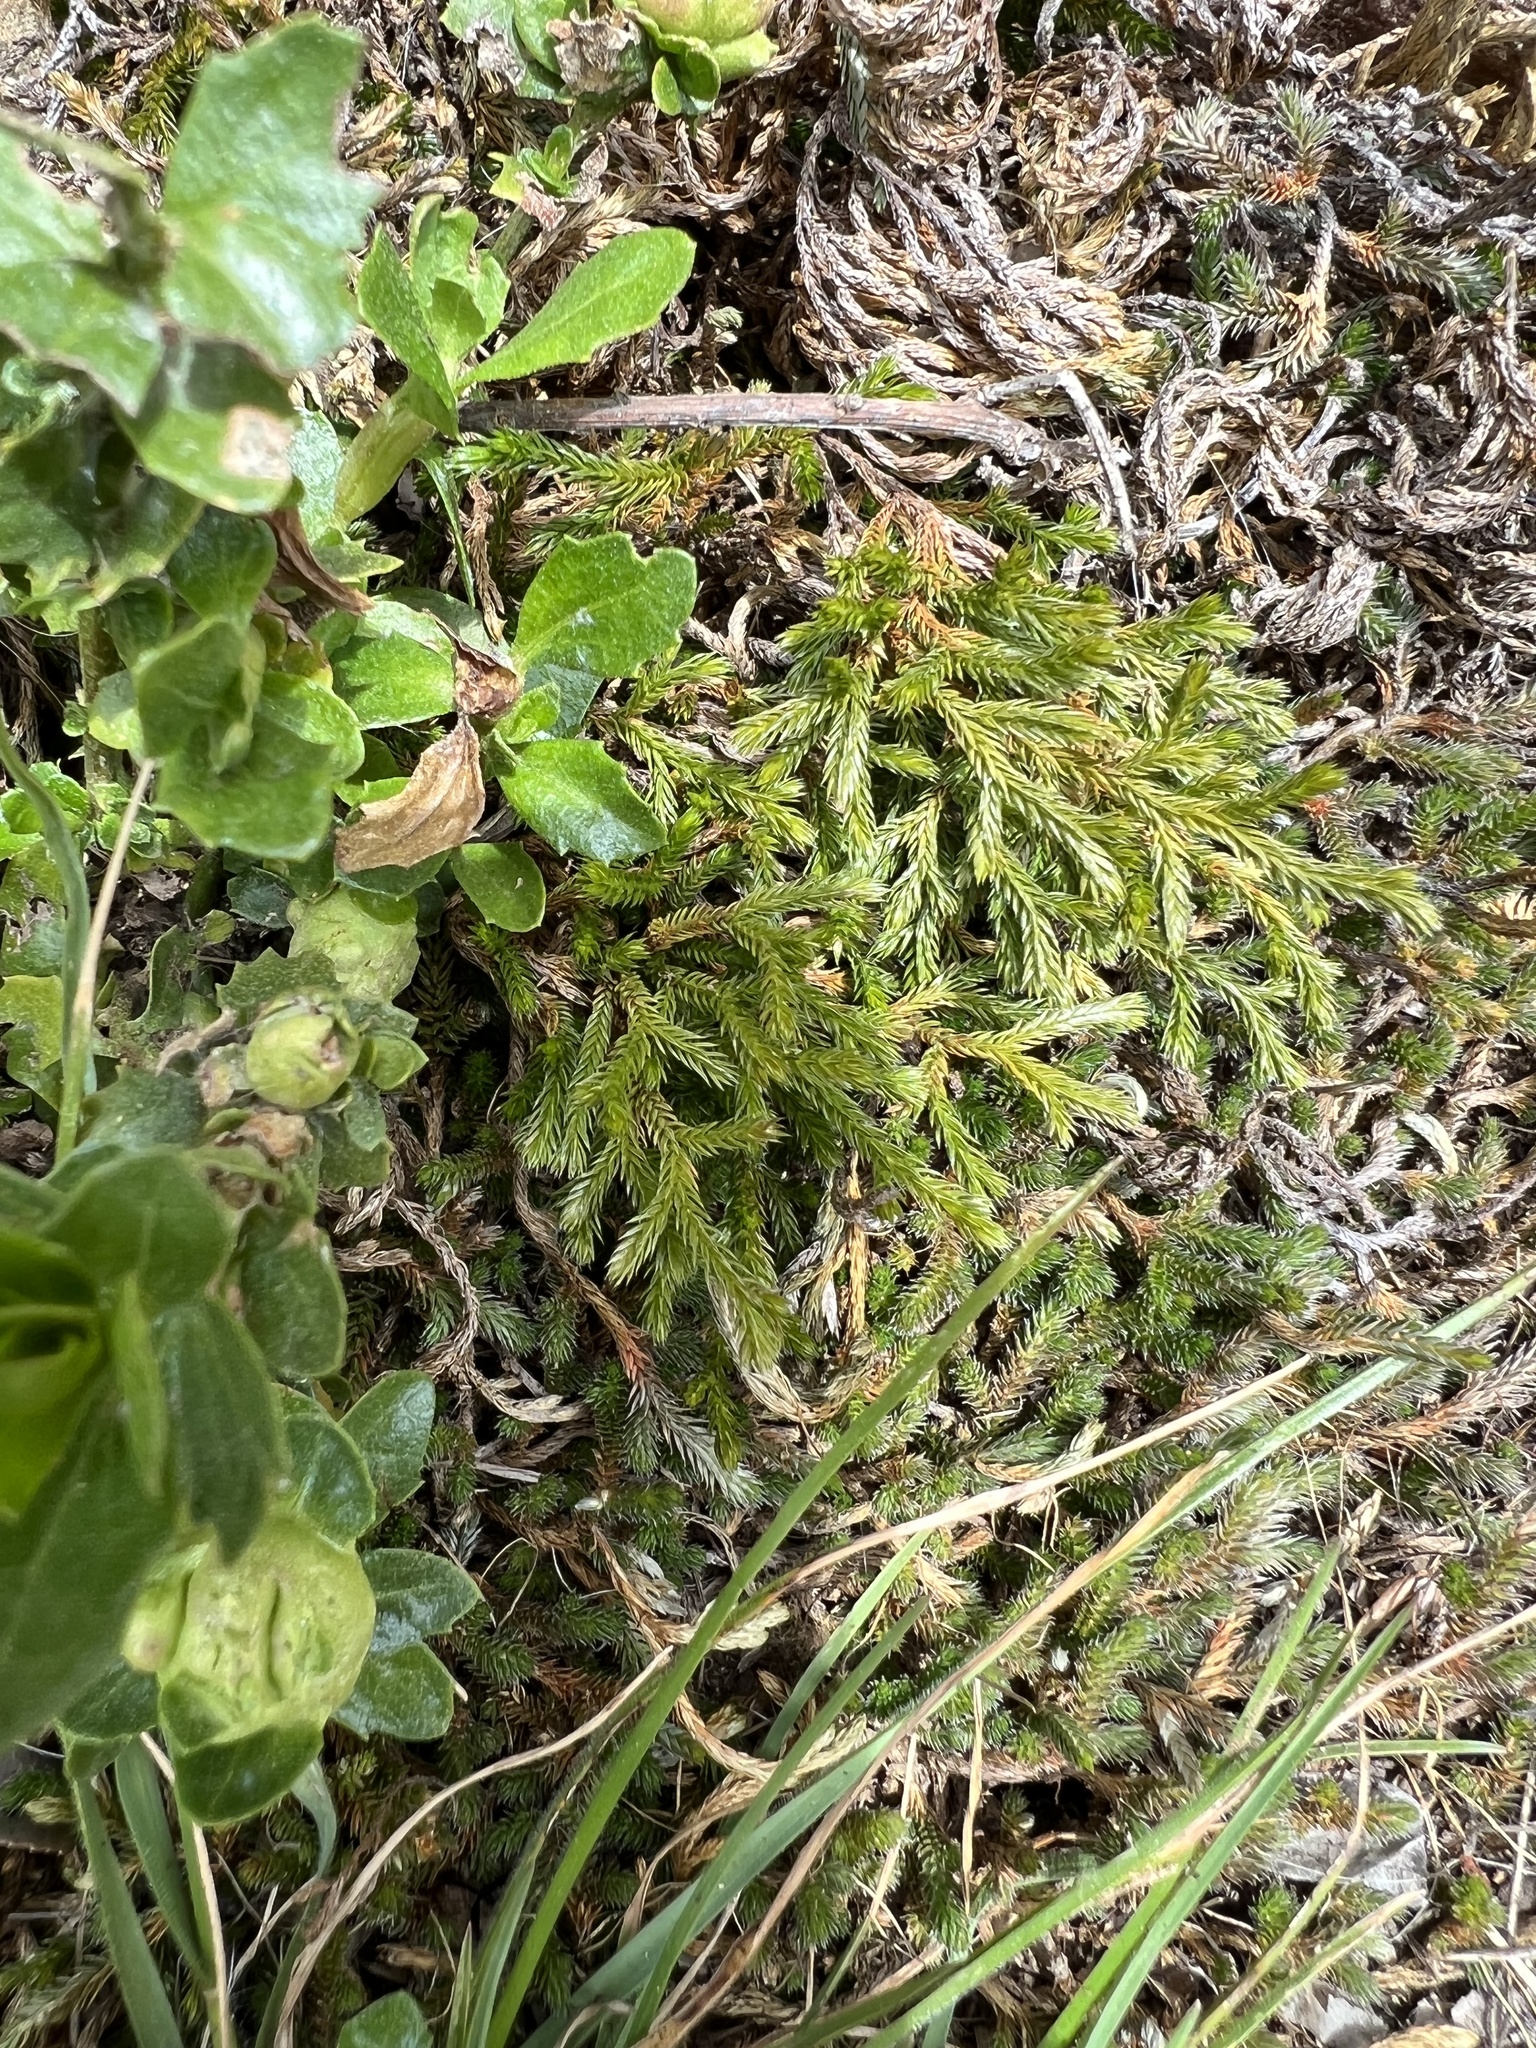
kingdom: Plantae
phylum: Tracheophyta
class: Lycopodiopsida
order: Selaginellales
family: Selaginellaceae
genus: Selaginella
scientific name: Selaginella wallacei
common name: Wallace's selaginella
